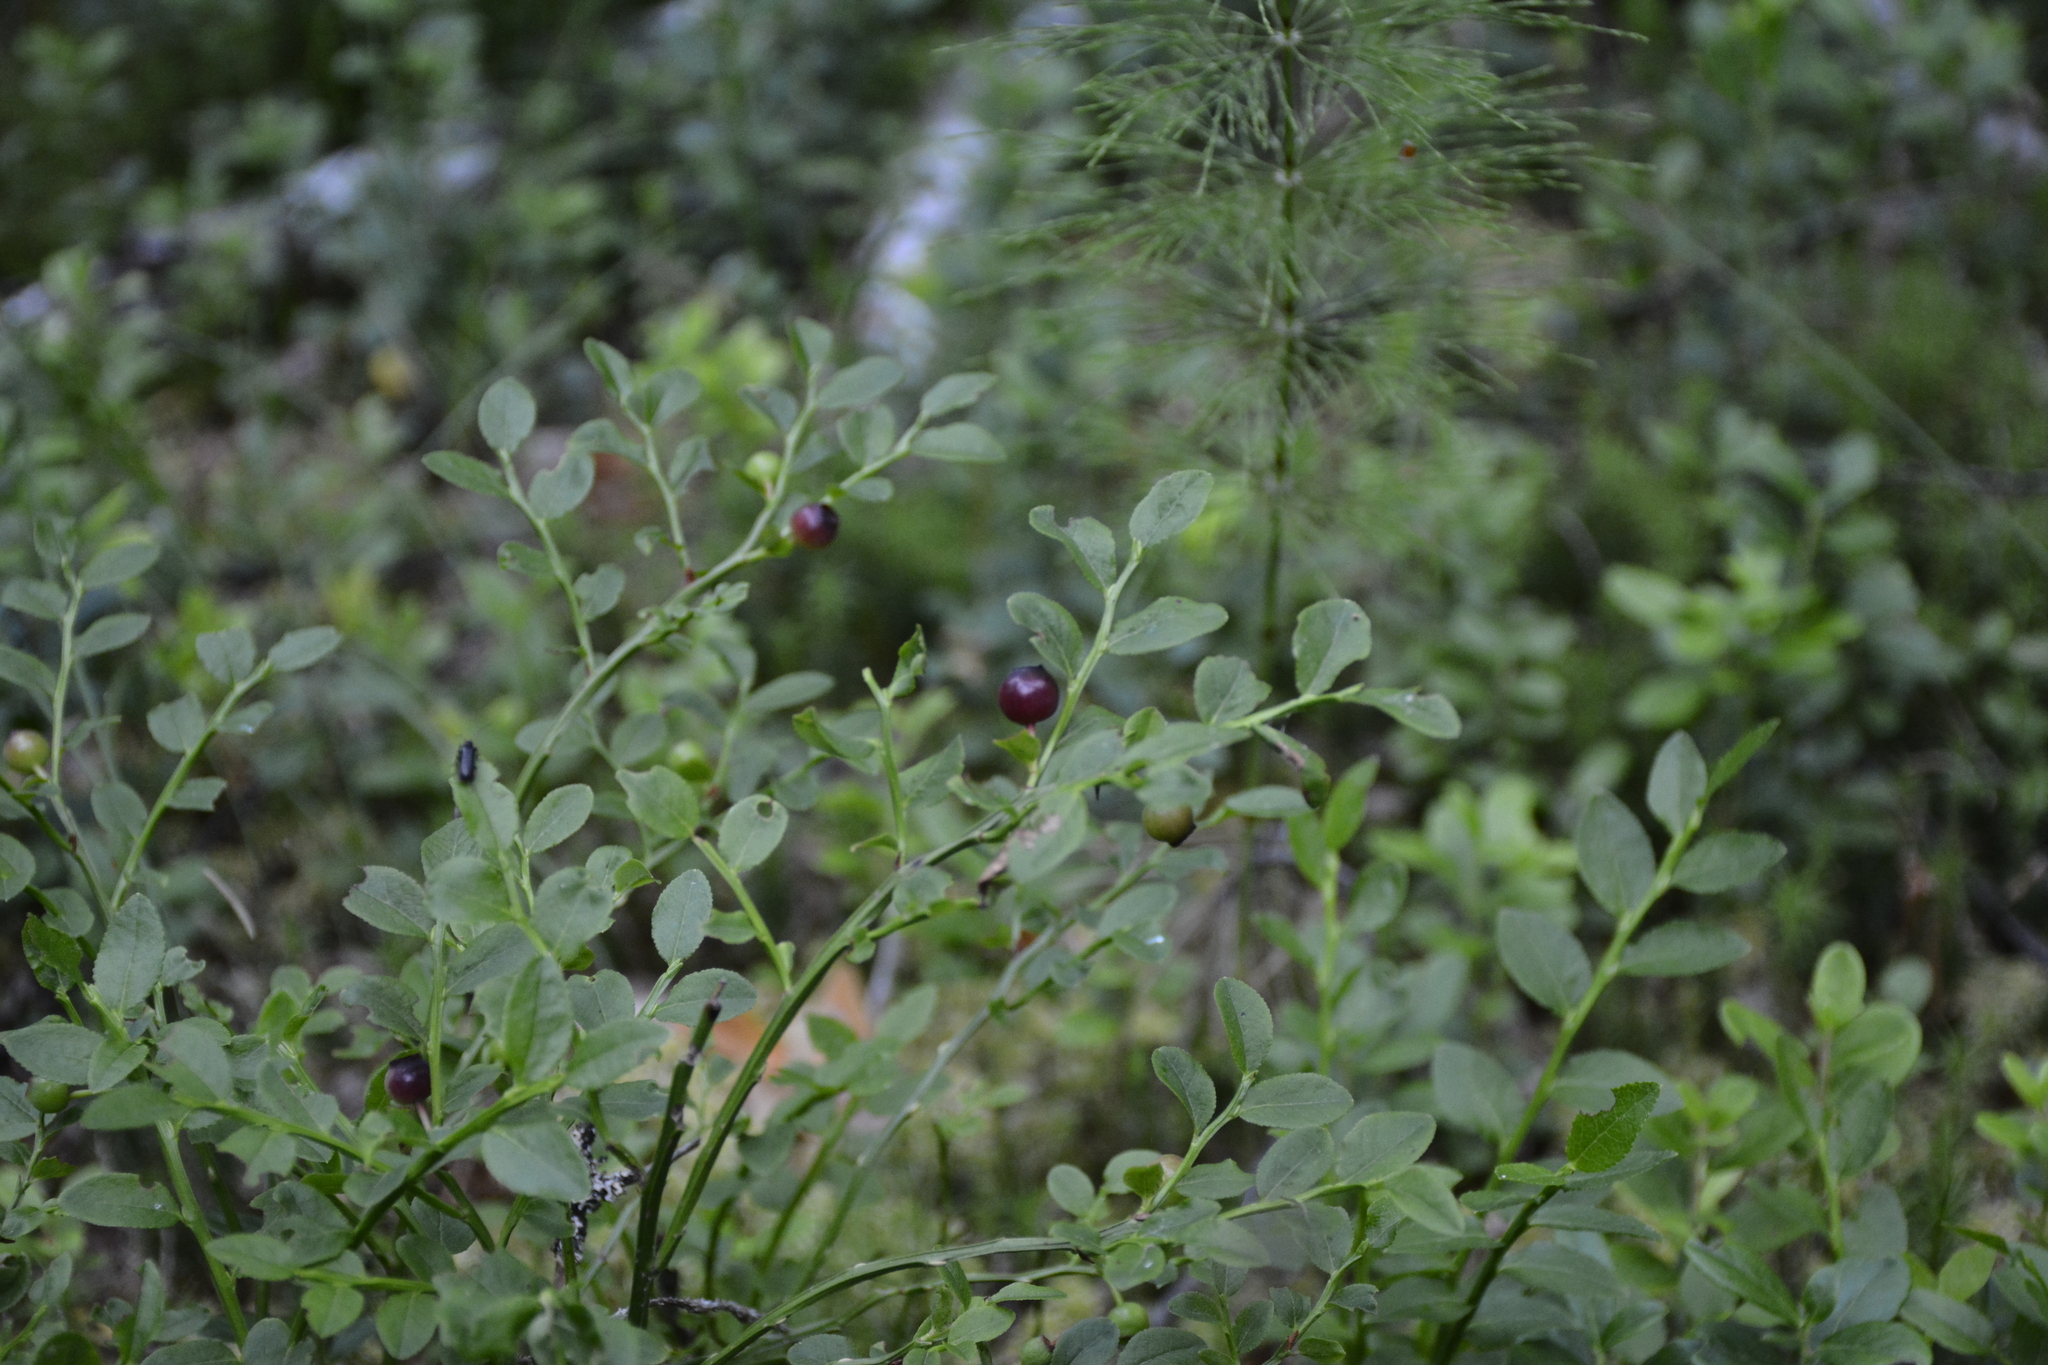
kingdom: Plantae
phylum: Tracheophyta
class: Magnoliopsida
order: Ericales
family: Ericaceae
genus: Vaccinium
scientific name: Vaccinium myrtillus
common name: Bilberry
